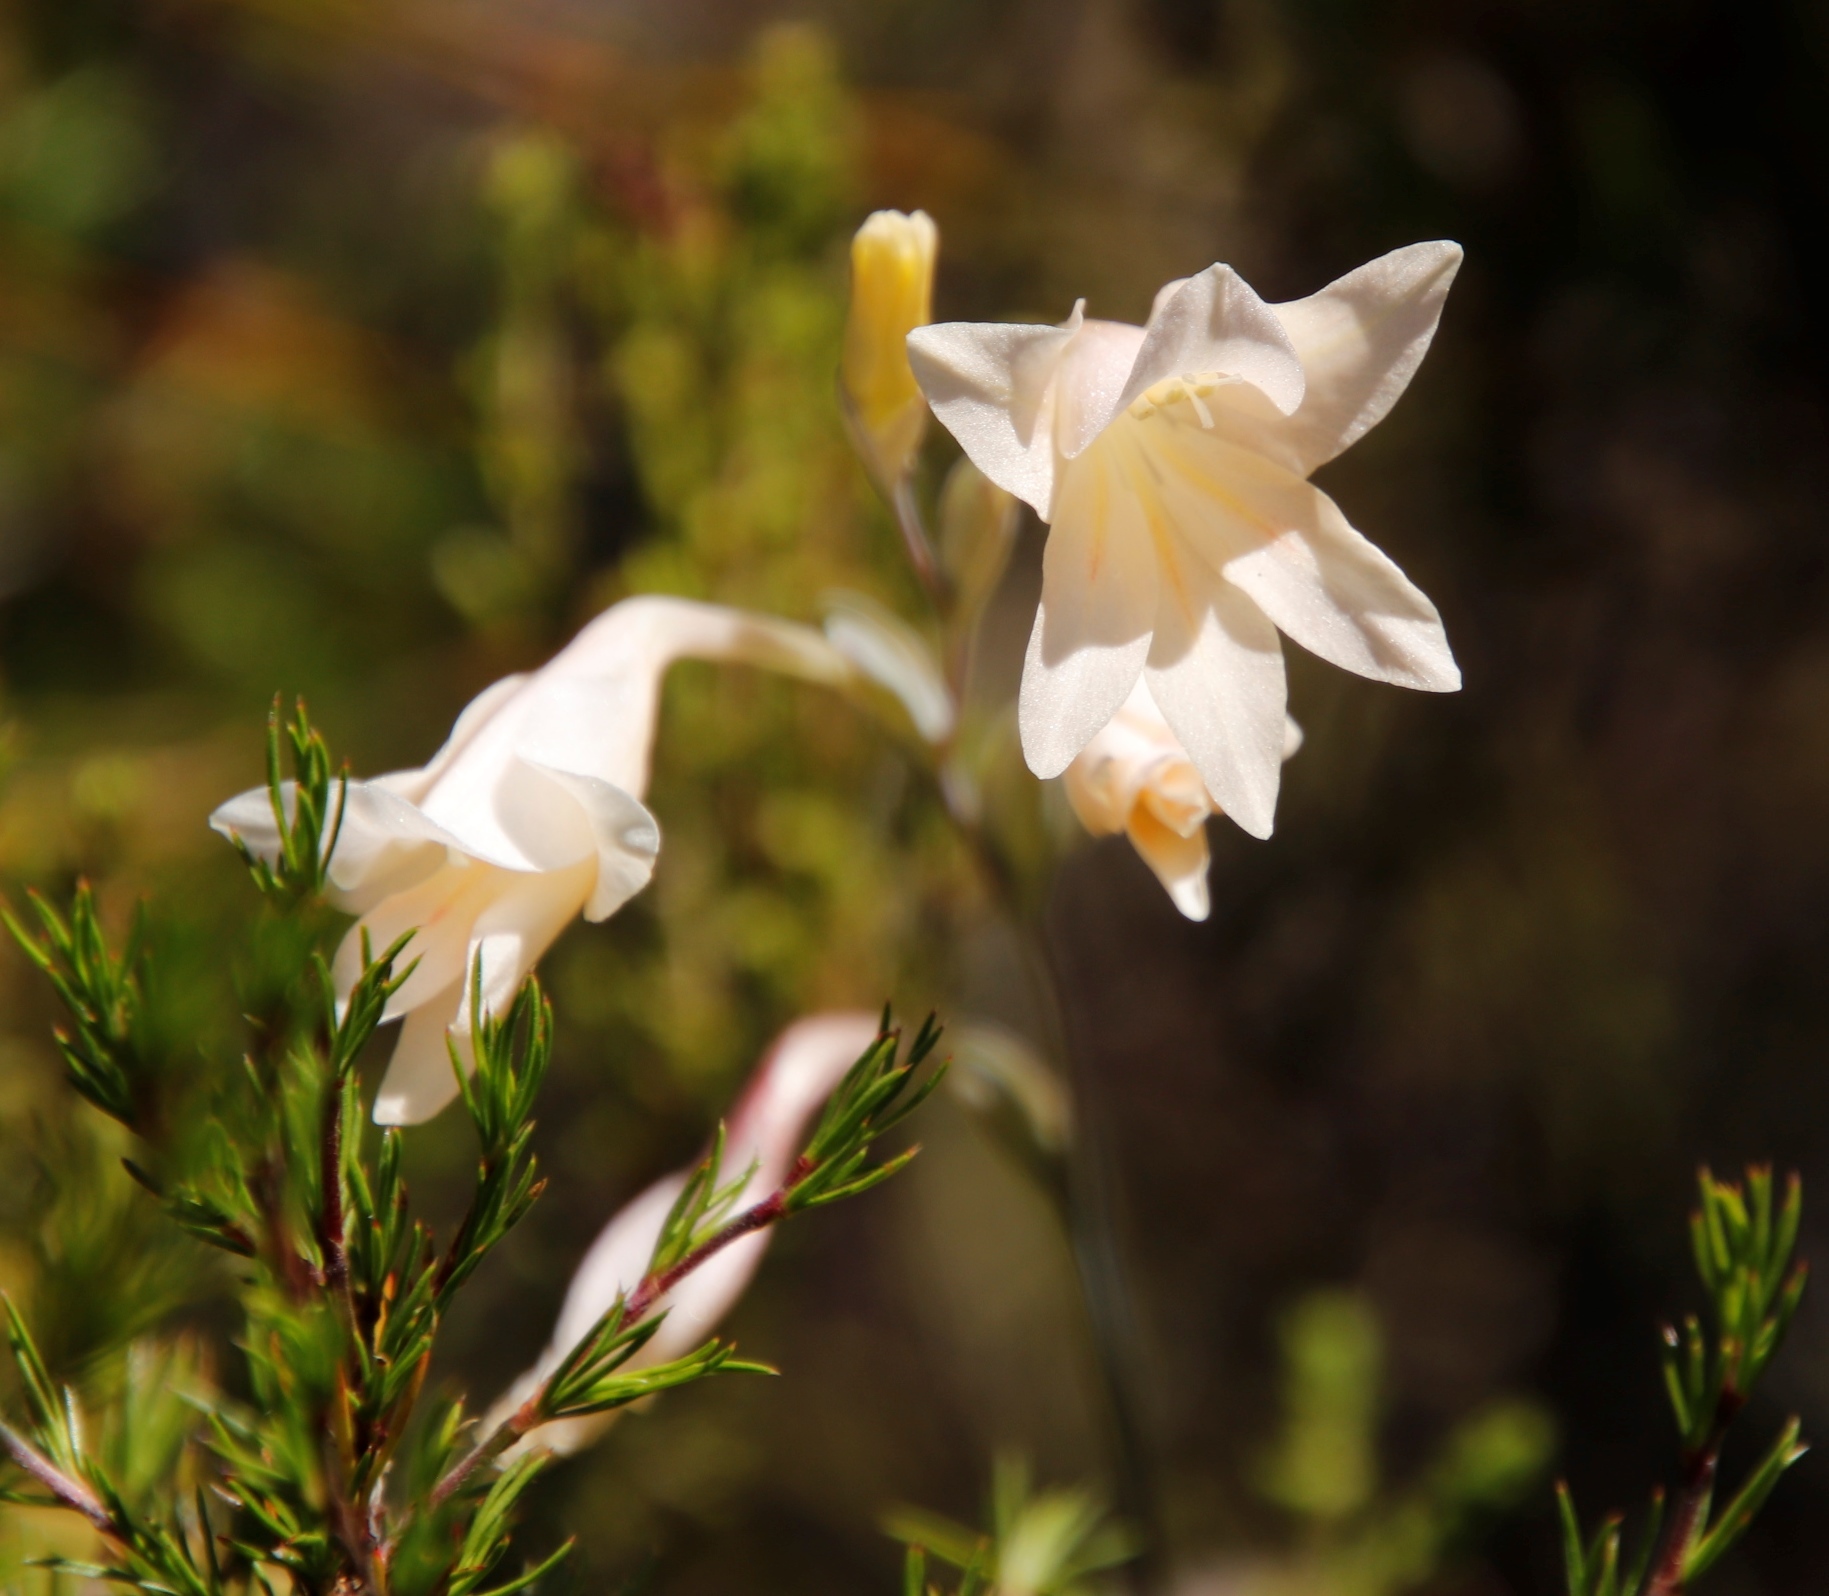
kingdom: Plantae
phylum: Tracheophyta
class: Liliopsida
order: Asparagales
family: Iridaceae
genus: Gladiolus
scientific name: Gladiolus monticola
